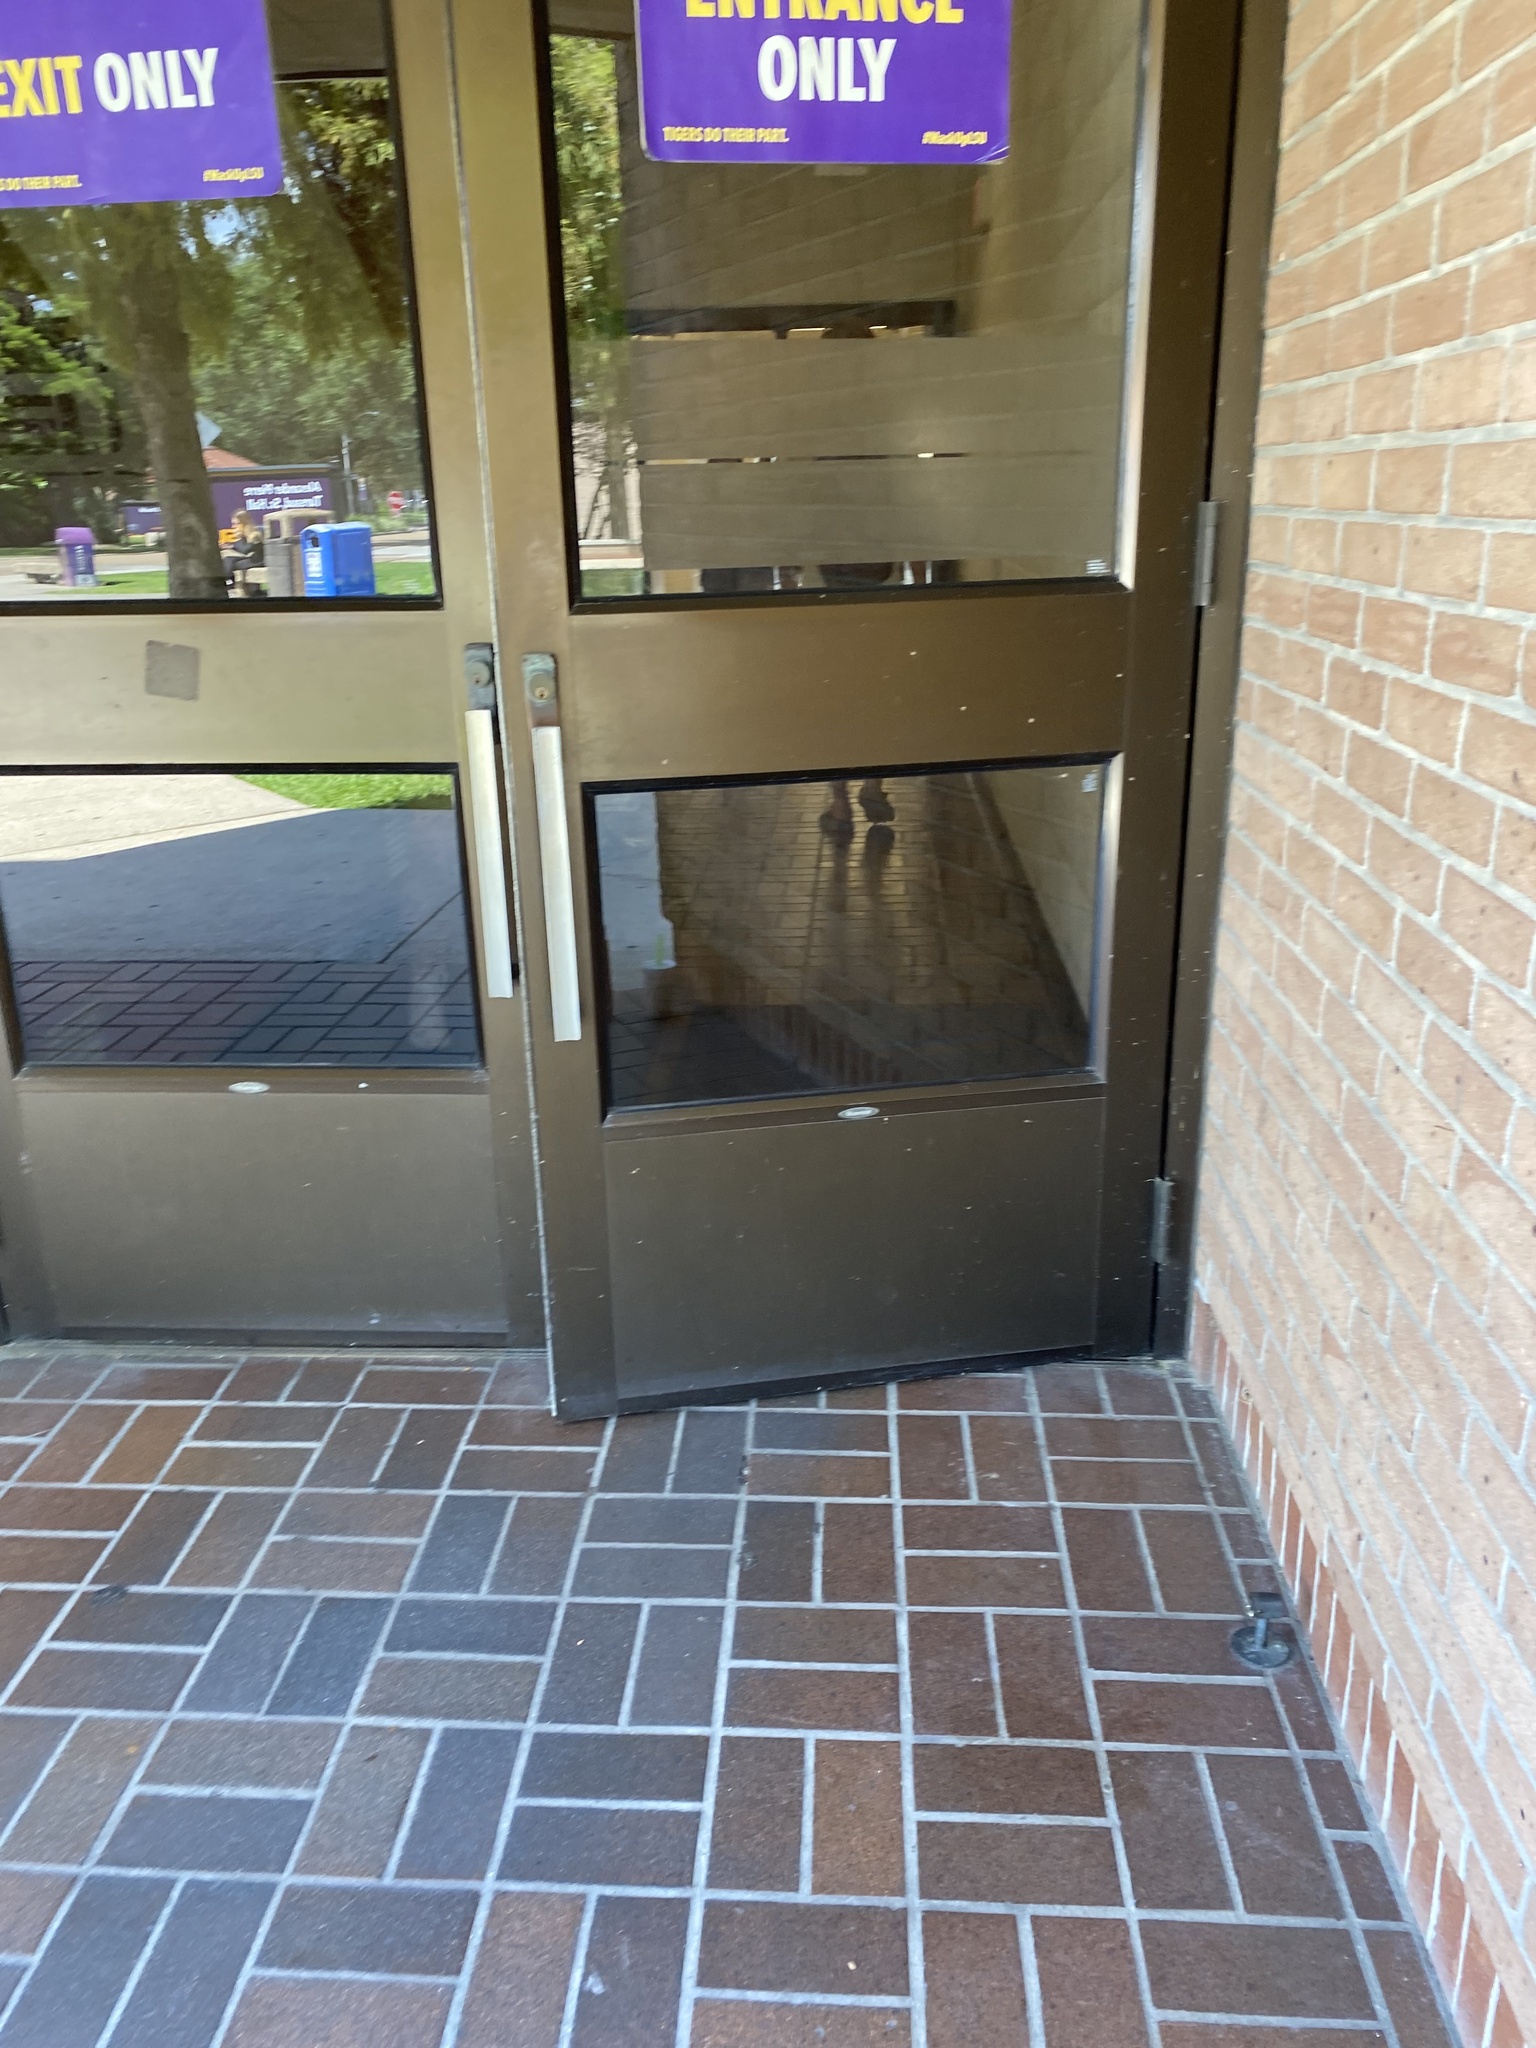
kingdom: Animalia
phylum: Chordata
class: Aves
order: Apodiformes
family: Trochilidae
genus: Archilochus
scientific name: Archilochus colubris
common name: Ruby-throated hummingbird
